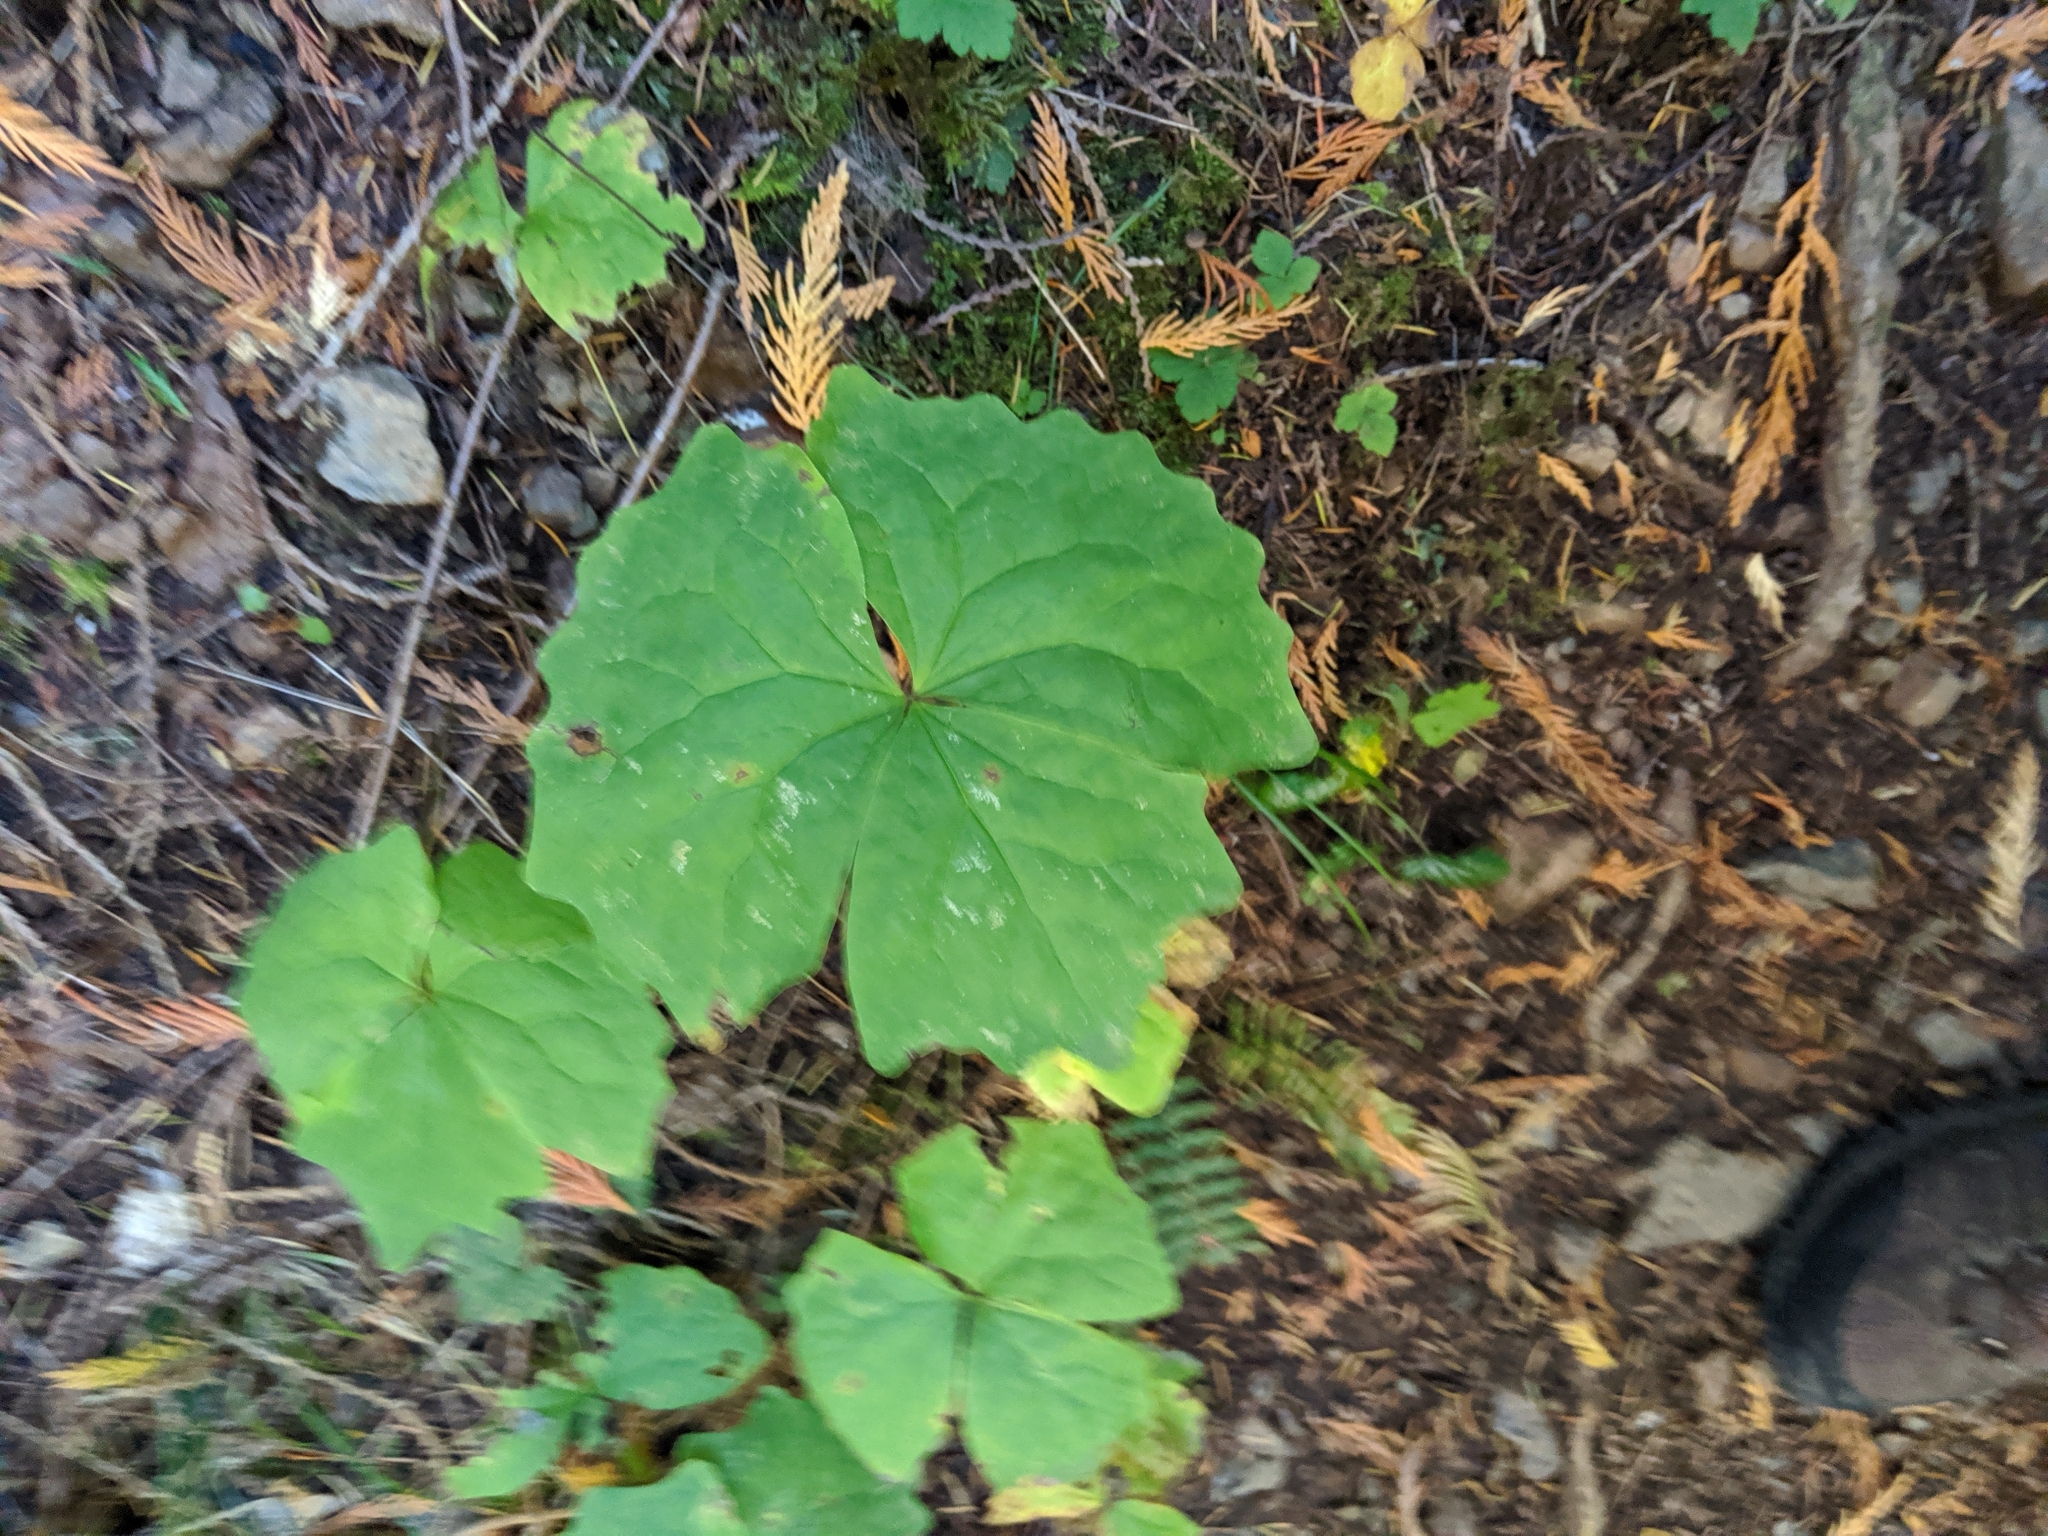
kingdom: Plantae
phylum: Tracheophyta
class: Magnoliopsida
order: Ranunculales
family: Berberidaceae
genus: Achlys
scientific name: Achlys triphylla
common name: Vanilla-leaf
